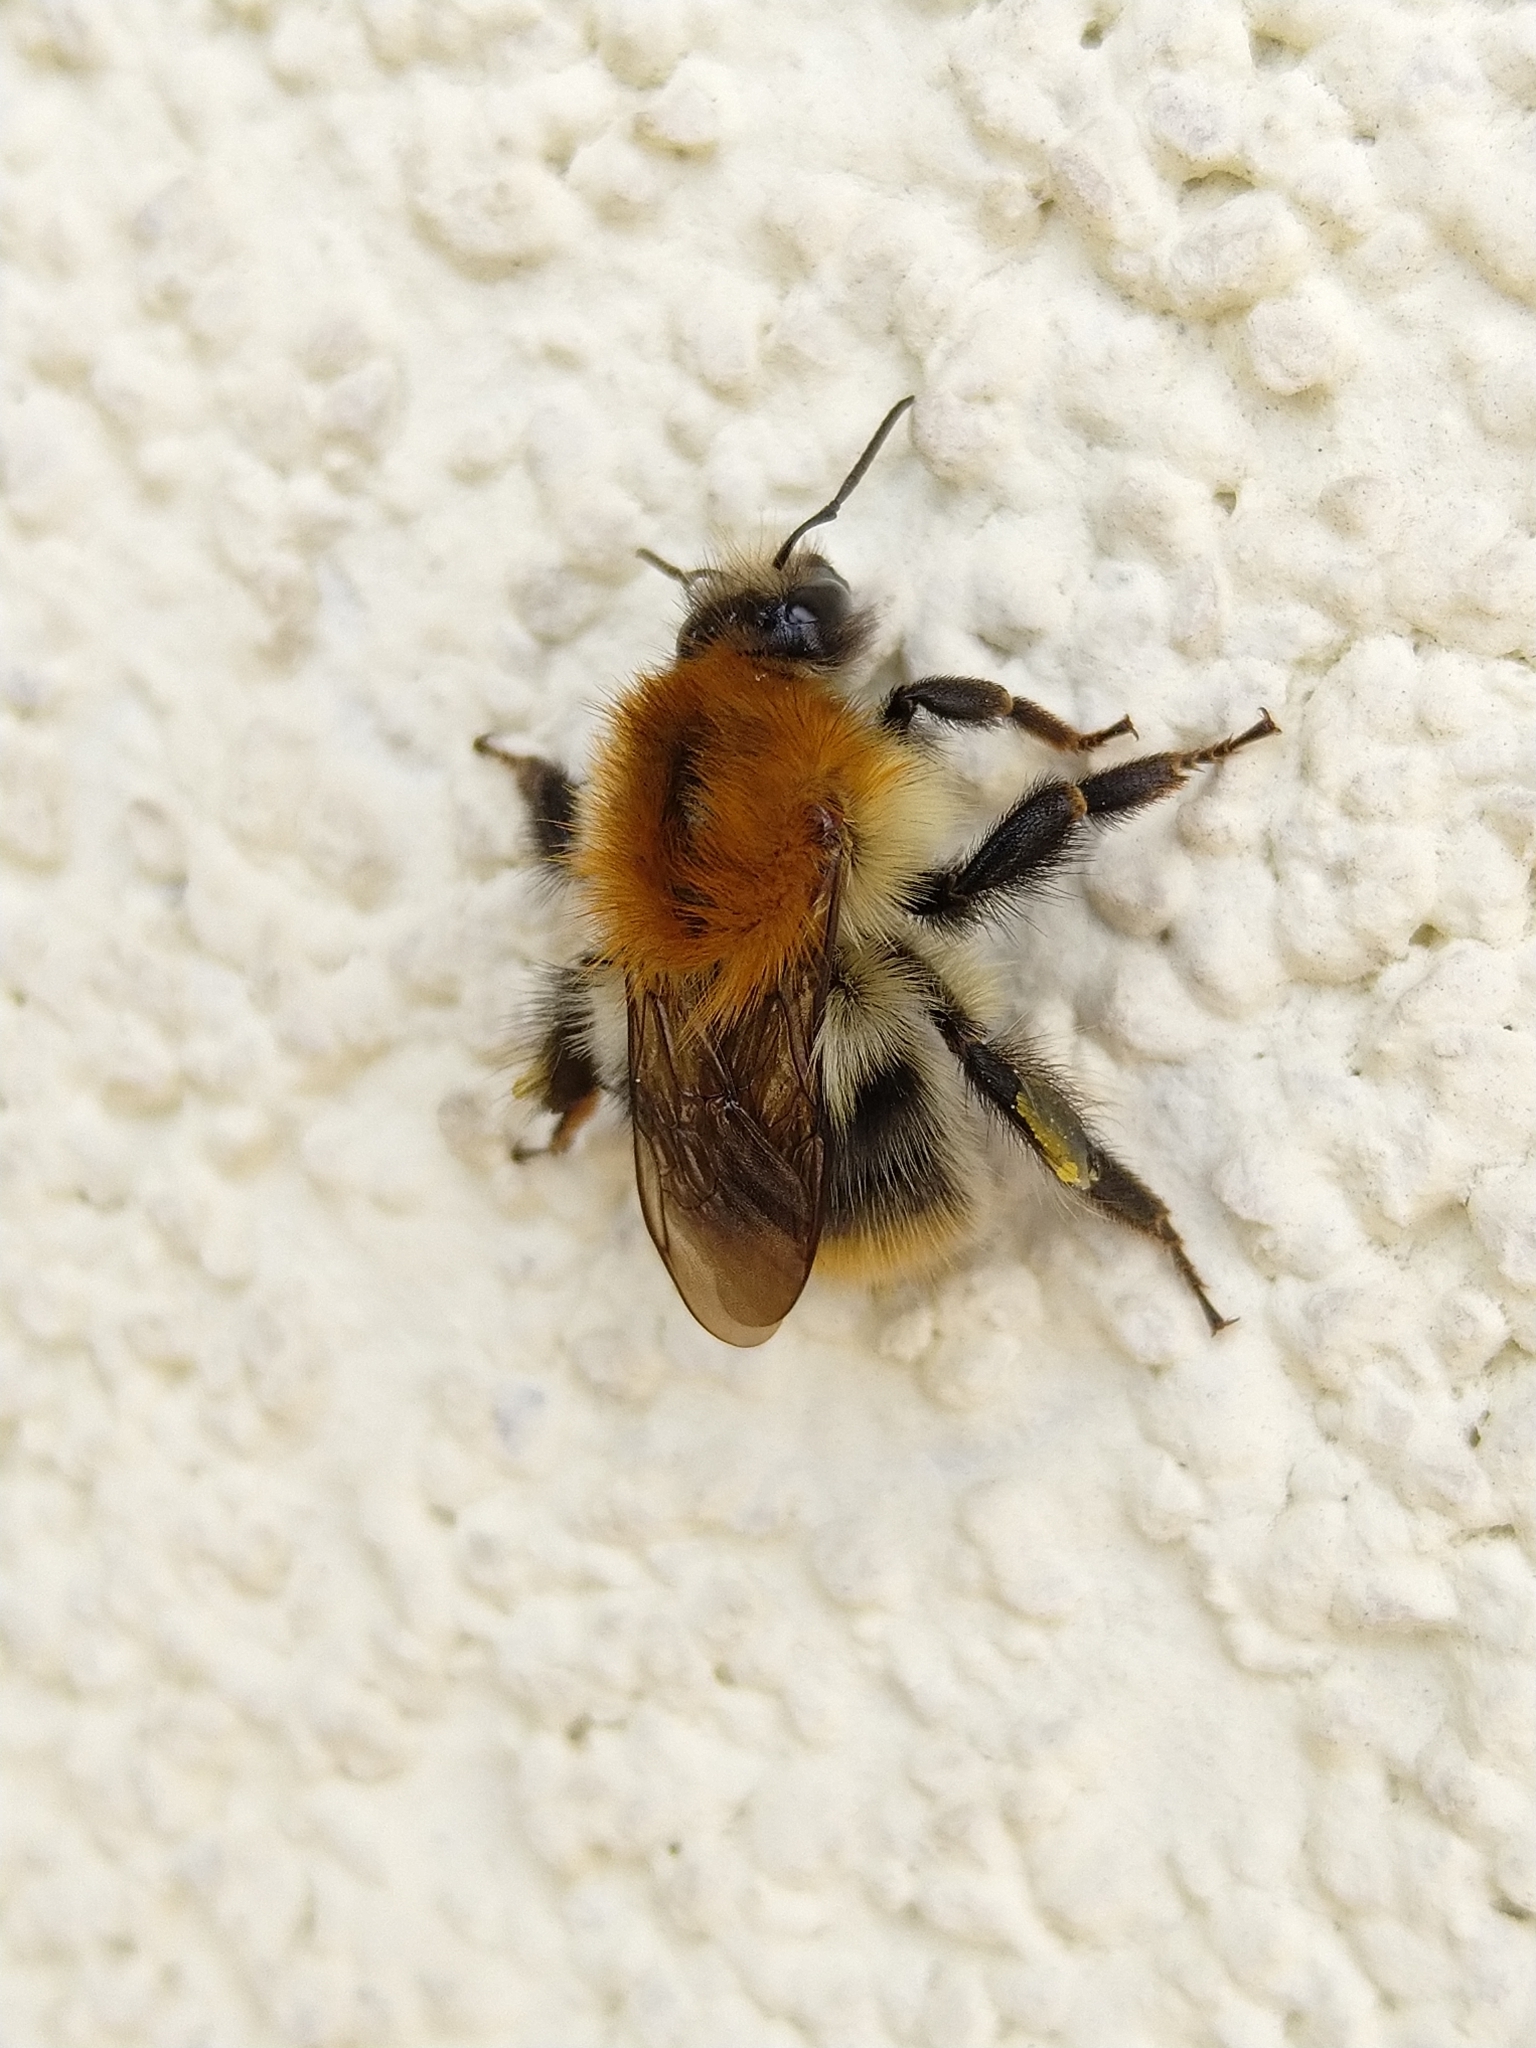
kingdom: Animalia
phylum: Arthropoda
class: Insecta
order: Hymenoptera
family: Apidae
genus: Bombus
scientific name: Bombus pascuorum
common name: Common carder bee
